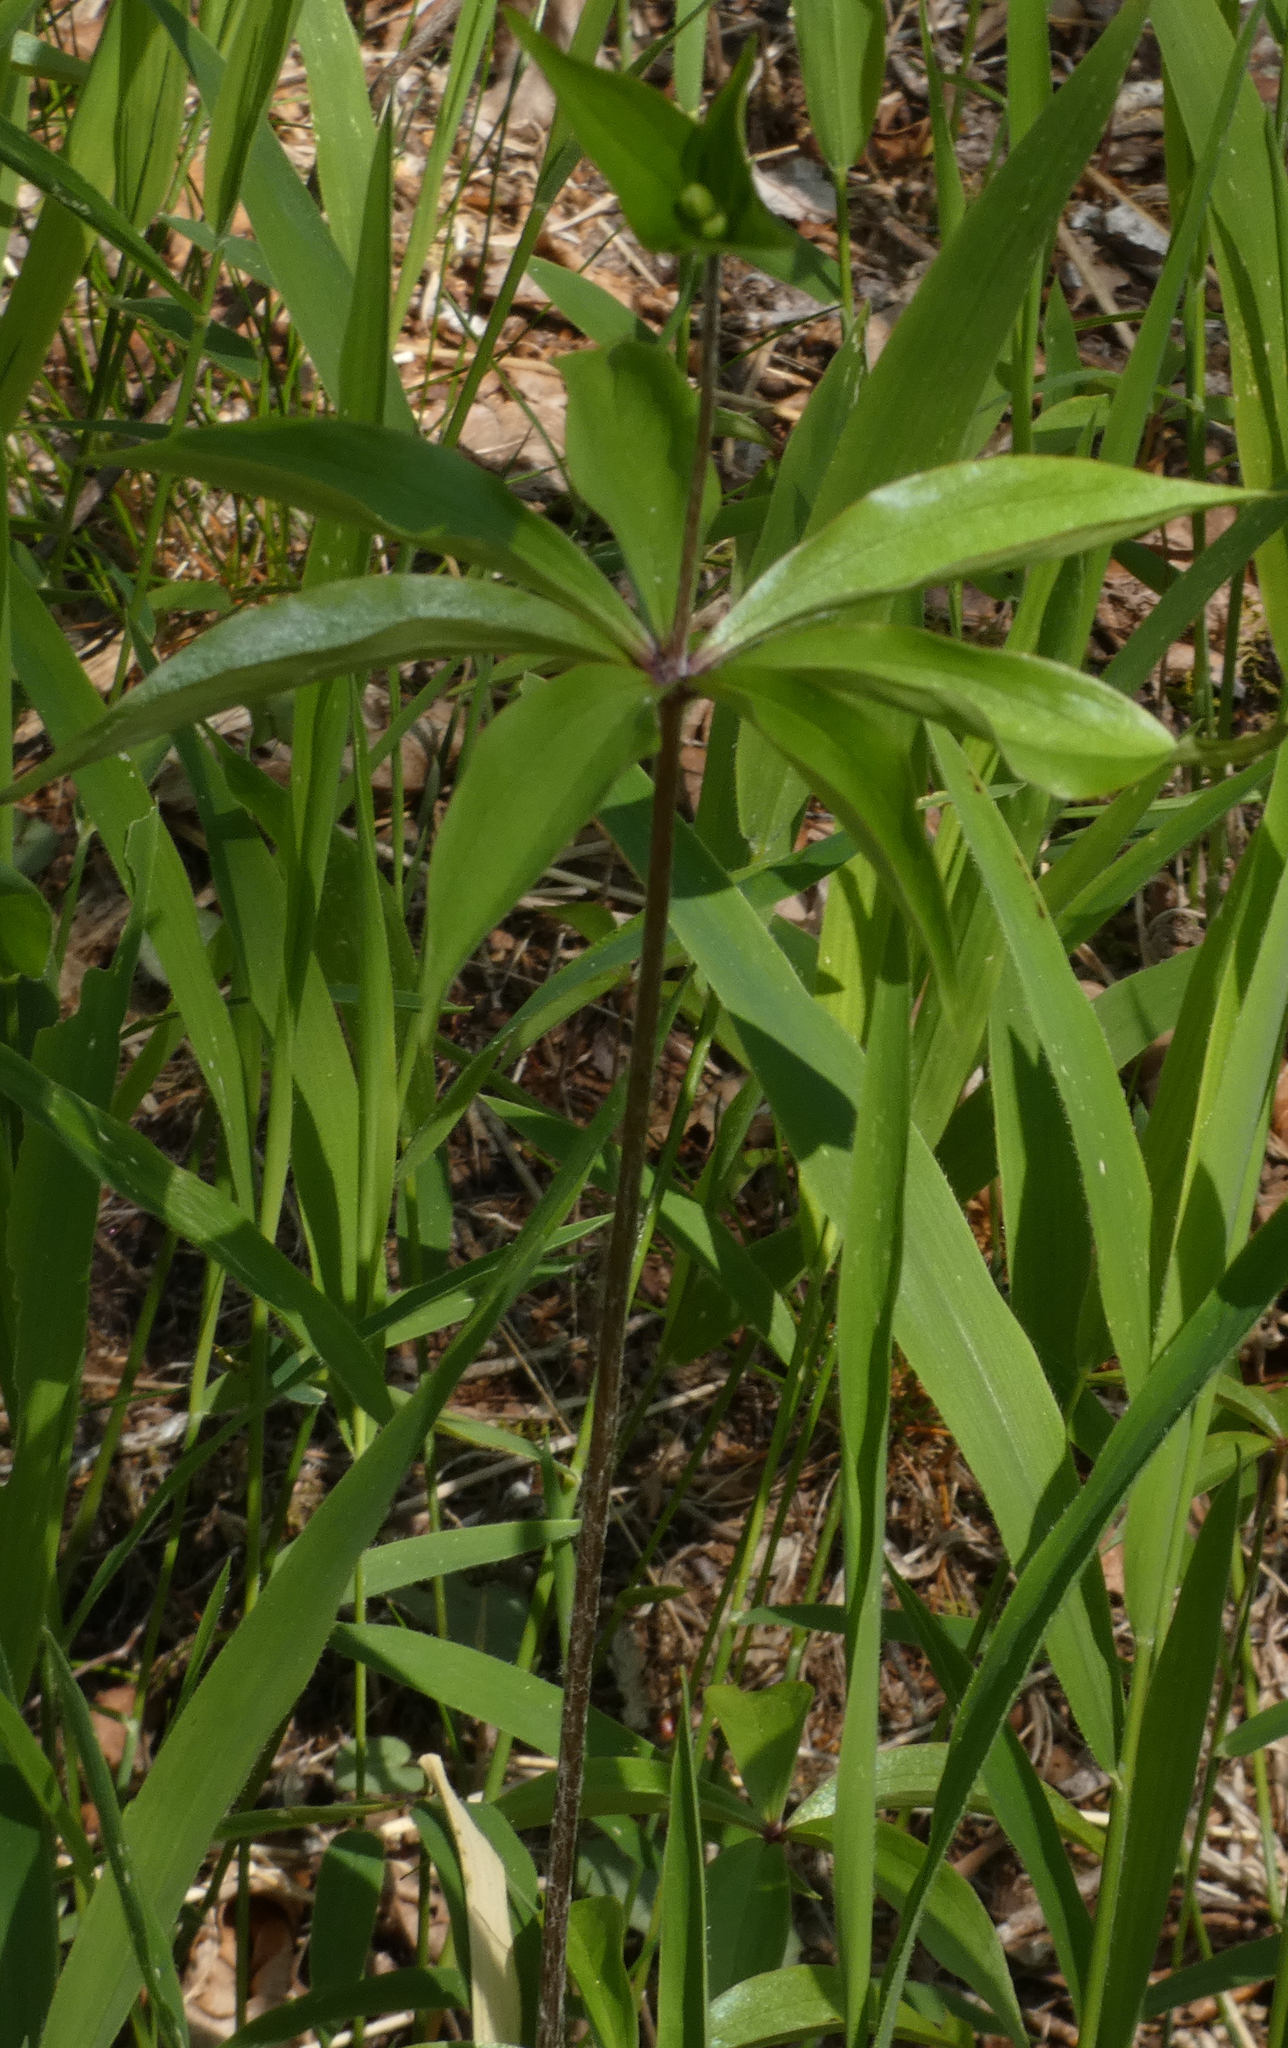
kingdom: Plantae
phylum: Tracheophyta
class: Liliopsida
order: Liliales
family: Liliaceae
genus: Medeola
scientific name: Medeola virginiana
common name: Indian cucumber-root
